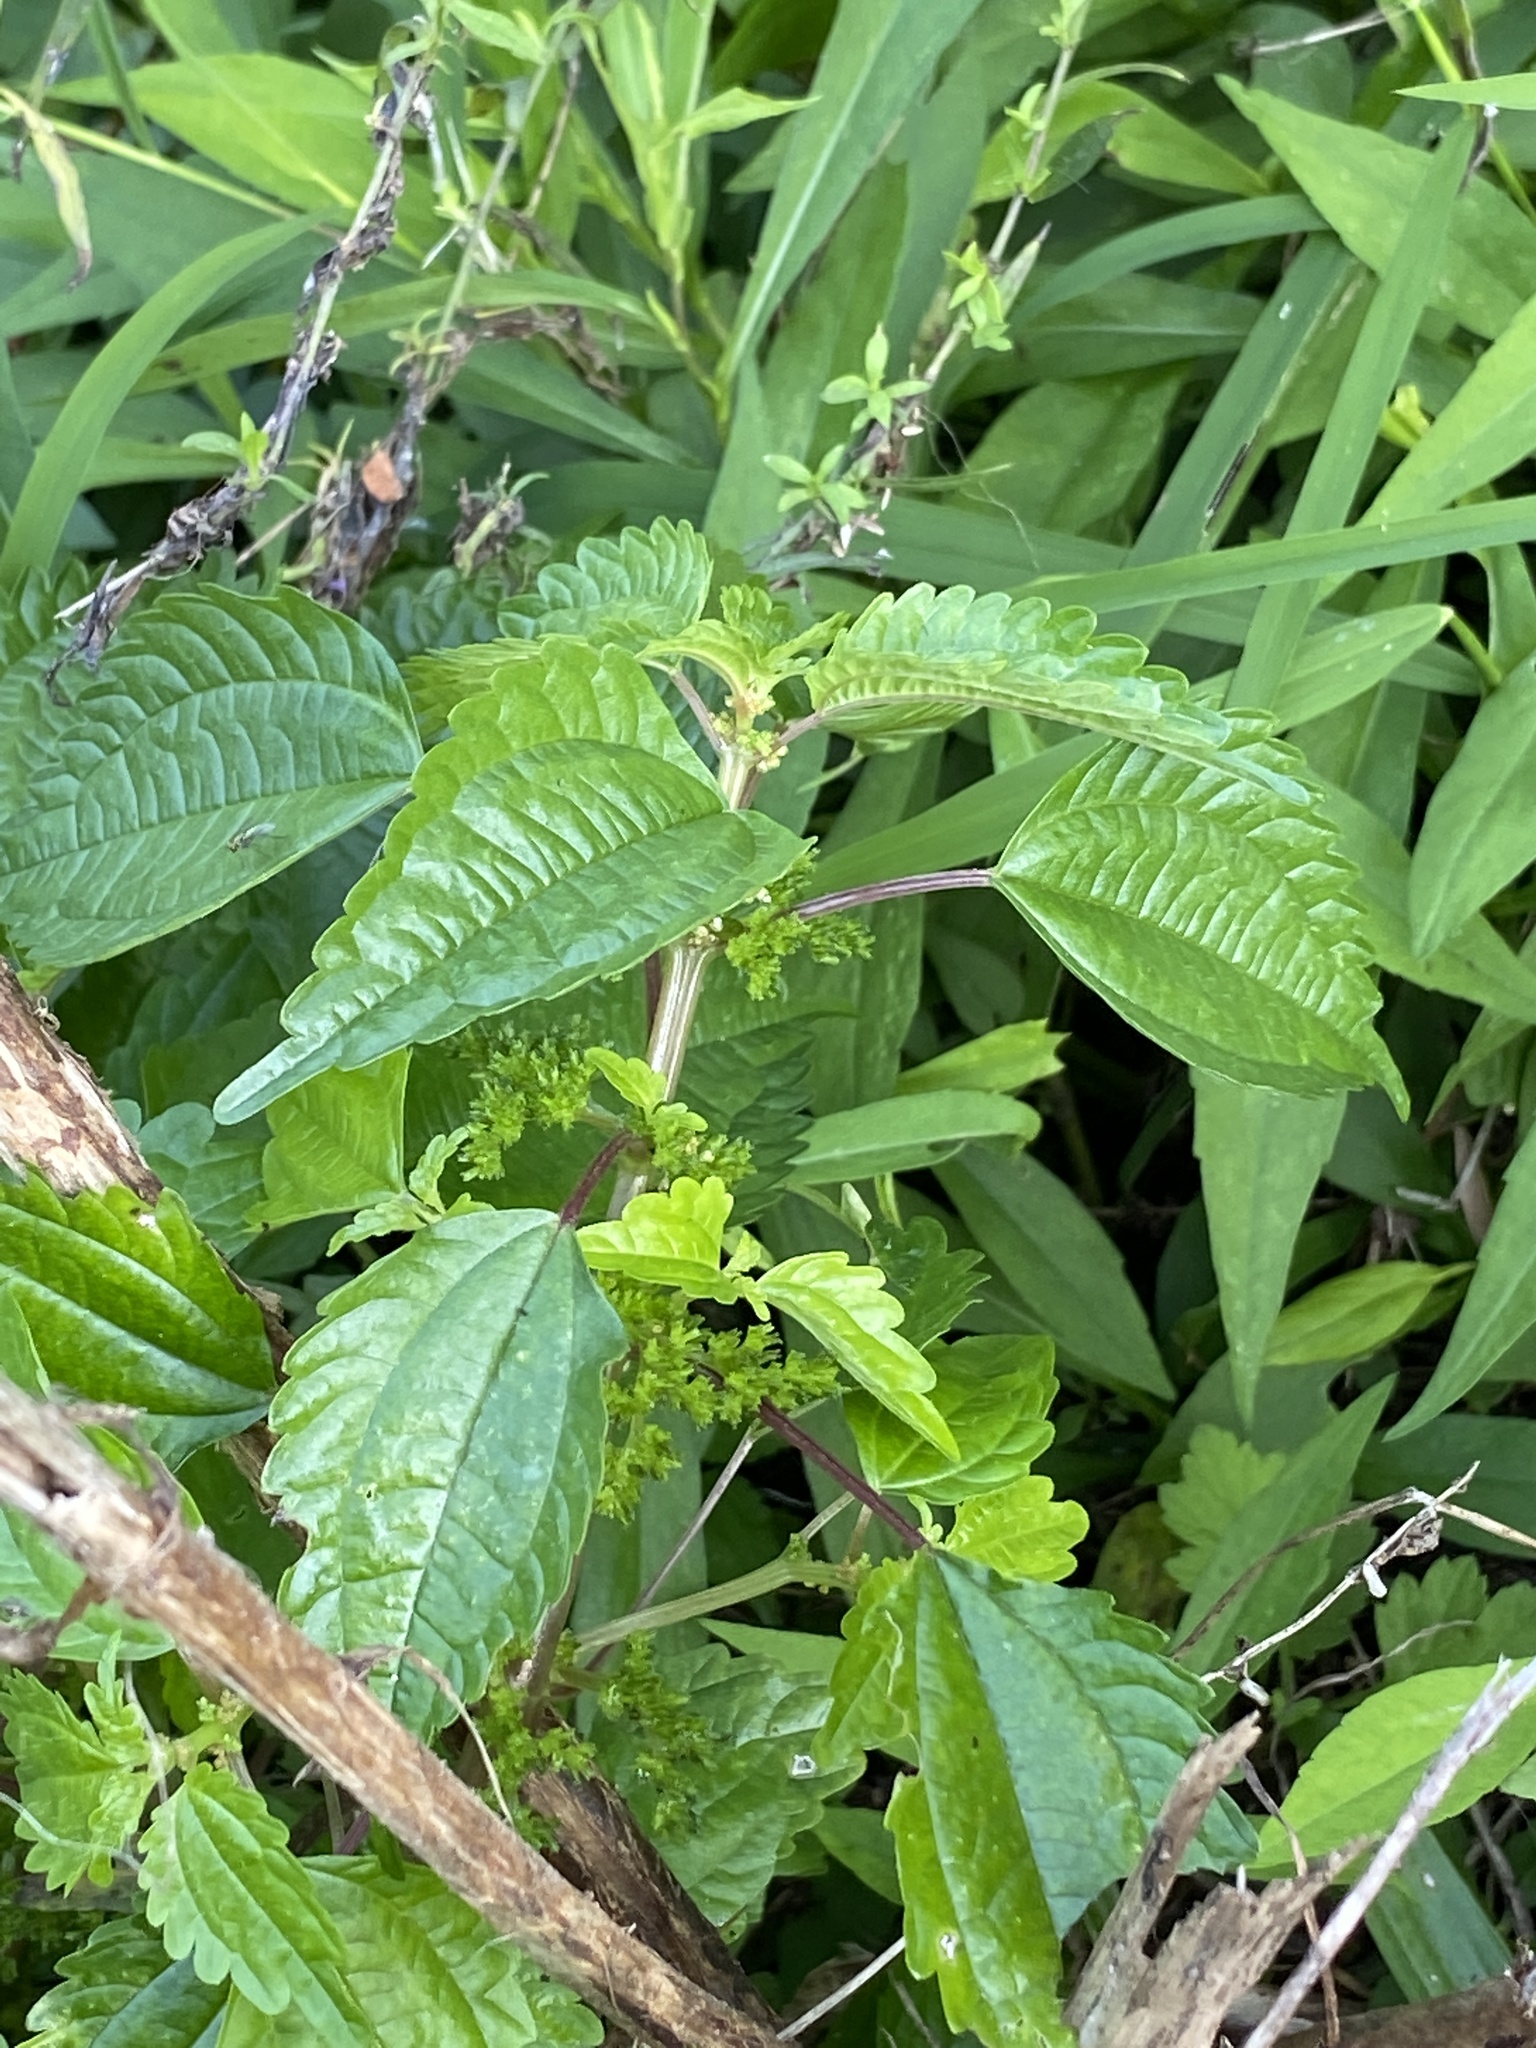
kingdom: Plantae
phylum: Tracheophyta
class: Magnoliopsida
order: Rosales
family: Urticaceae
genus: Pilea
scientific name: Pilea pumila
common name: Clearweed
